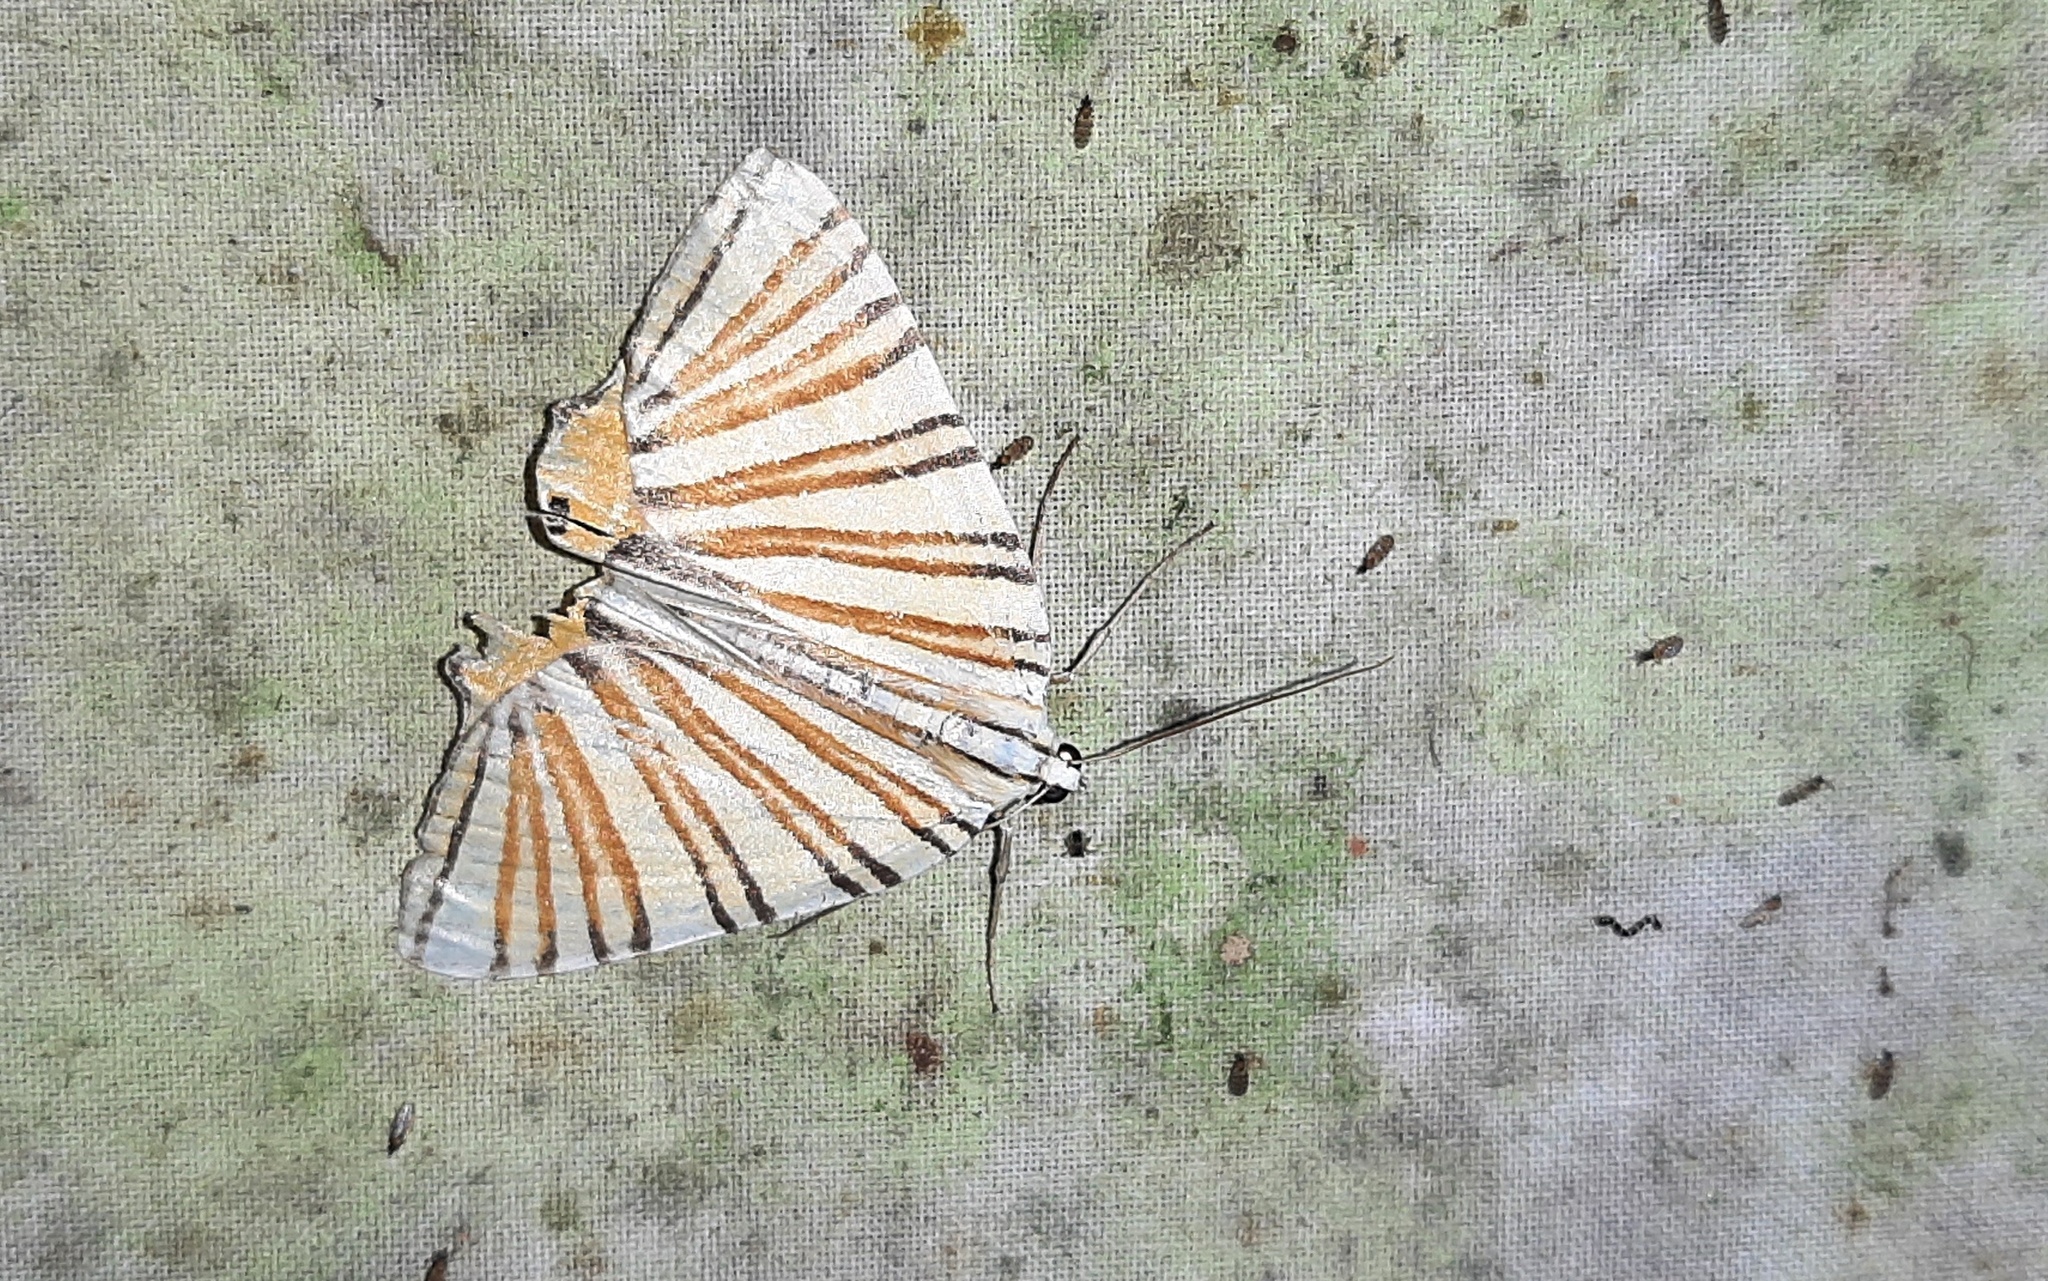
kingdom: Animalia
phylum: Arthropoda
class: Insecta
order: Lepidoptera
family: Geometridae
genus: Pityeja
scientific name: Pityeja histrionaria
